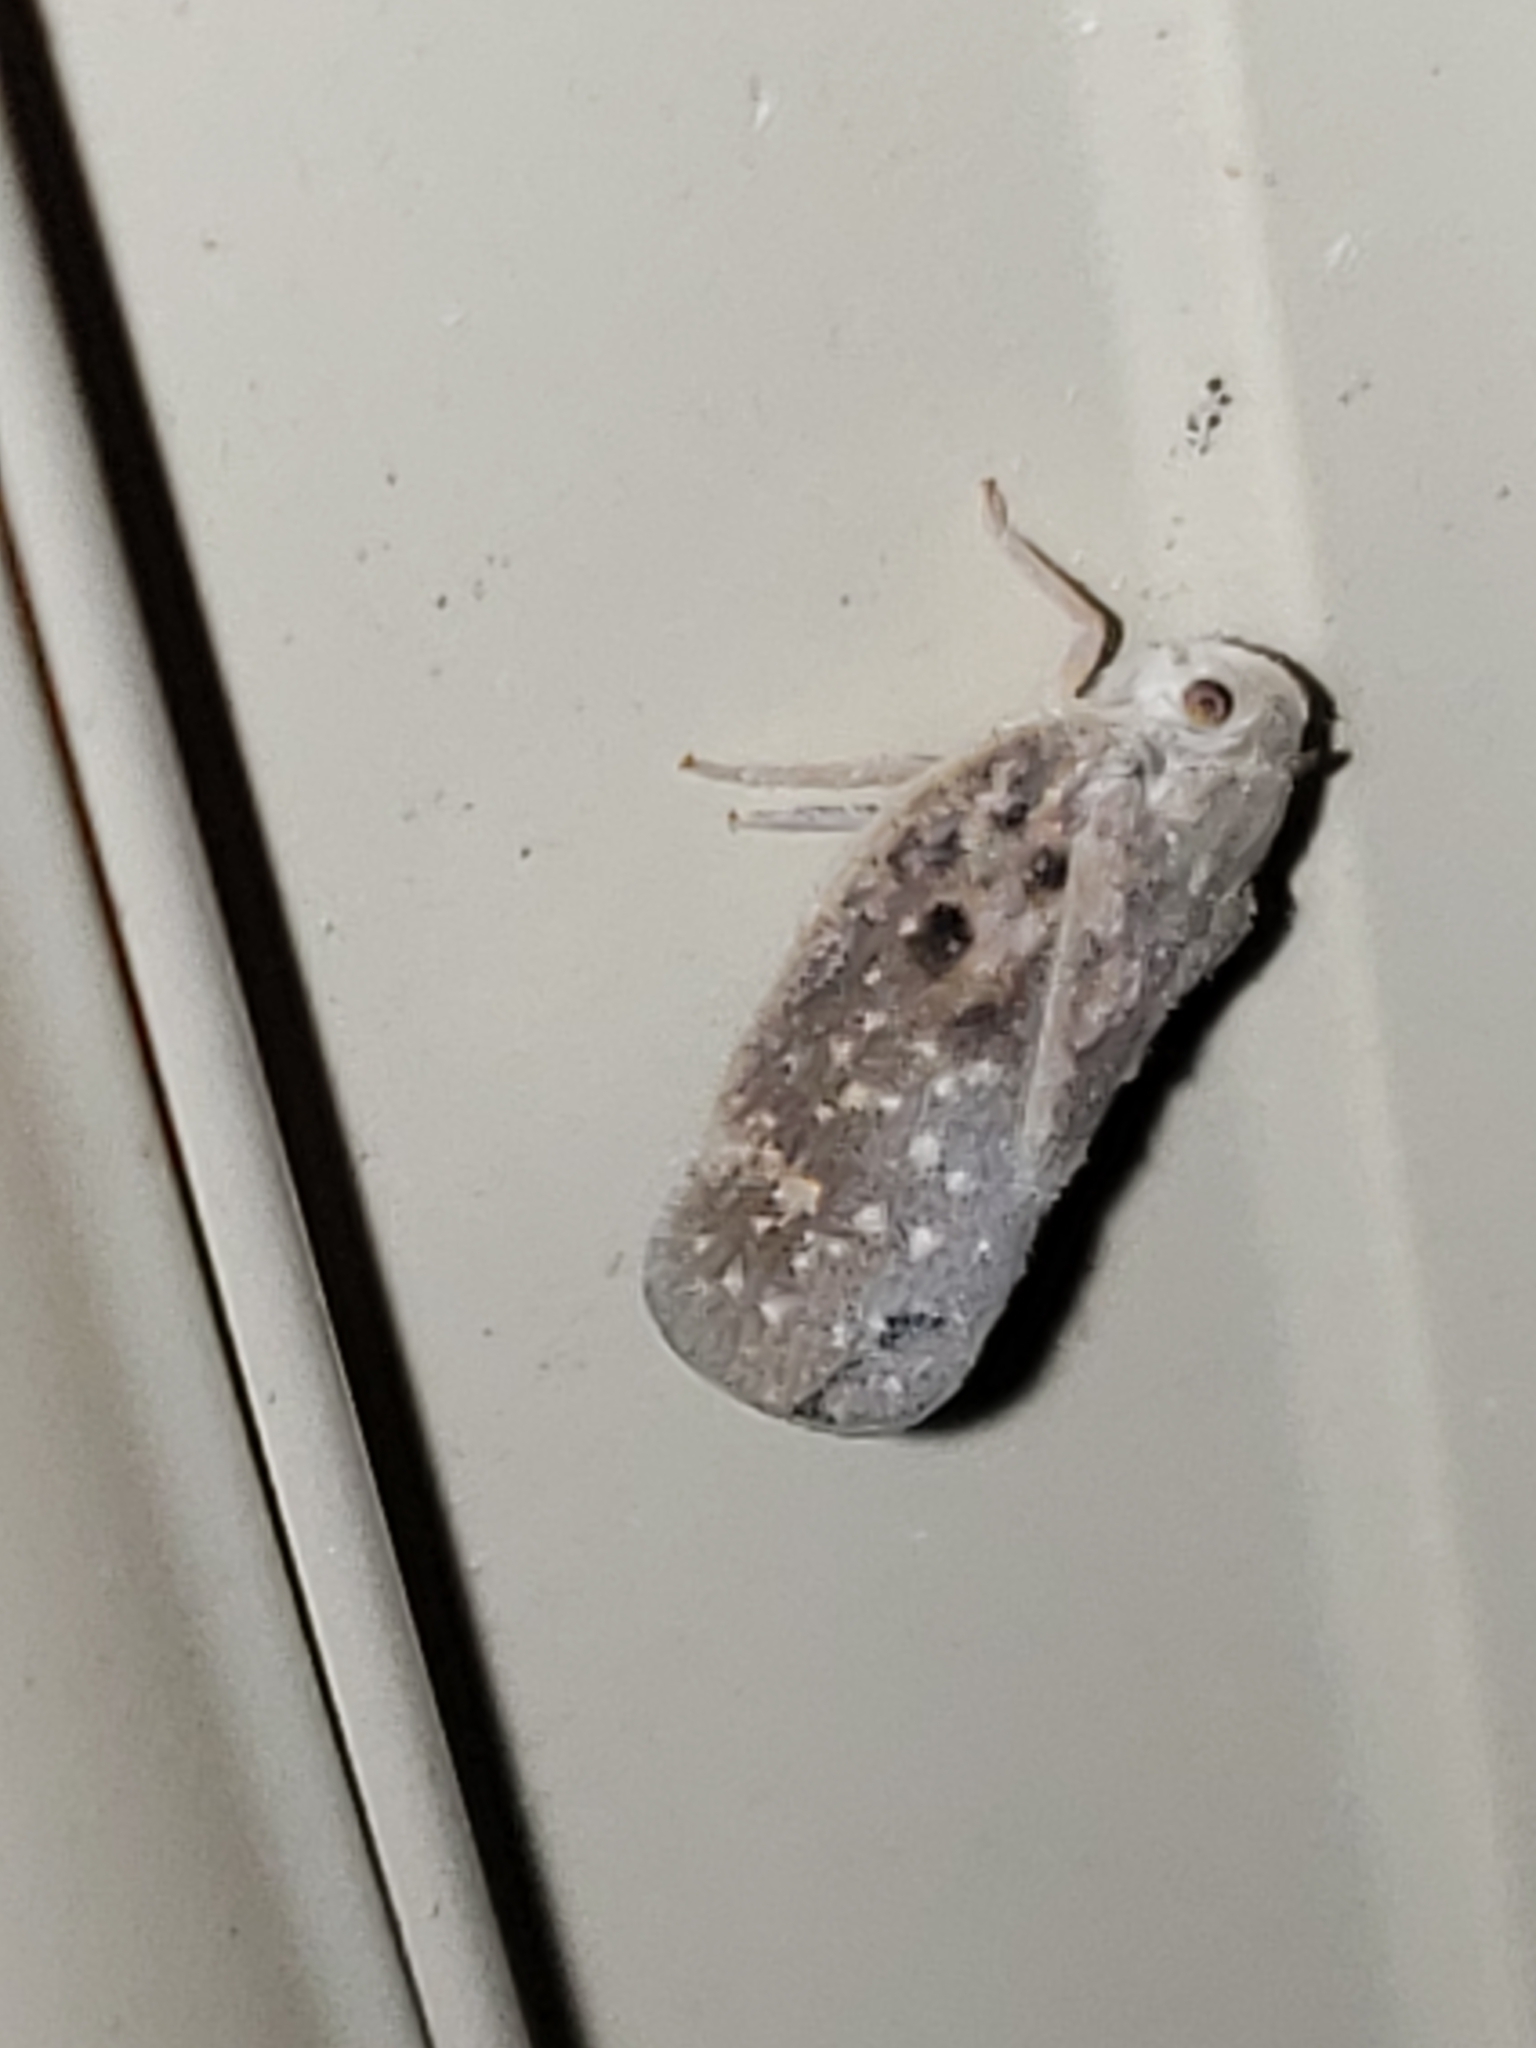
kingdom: Animalia
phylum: Arthropoda
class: Insecta
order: Hemiptera
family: Flatidae
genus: Metcalfa
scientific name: Metcalfa pruinosa
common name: Citrus flatid planthopper
